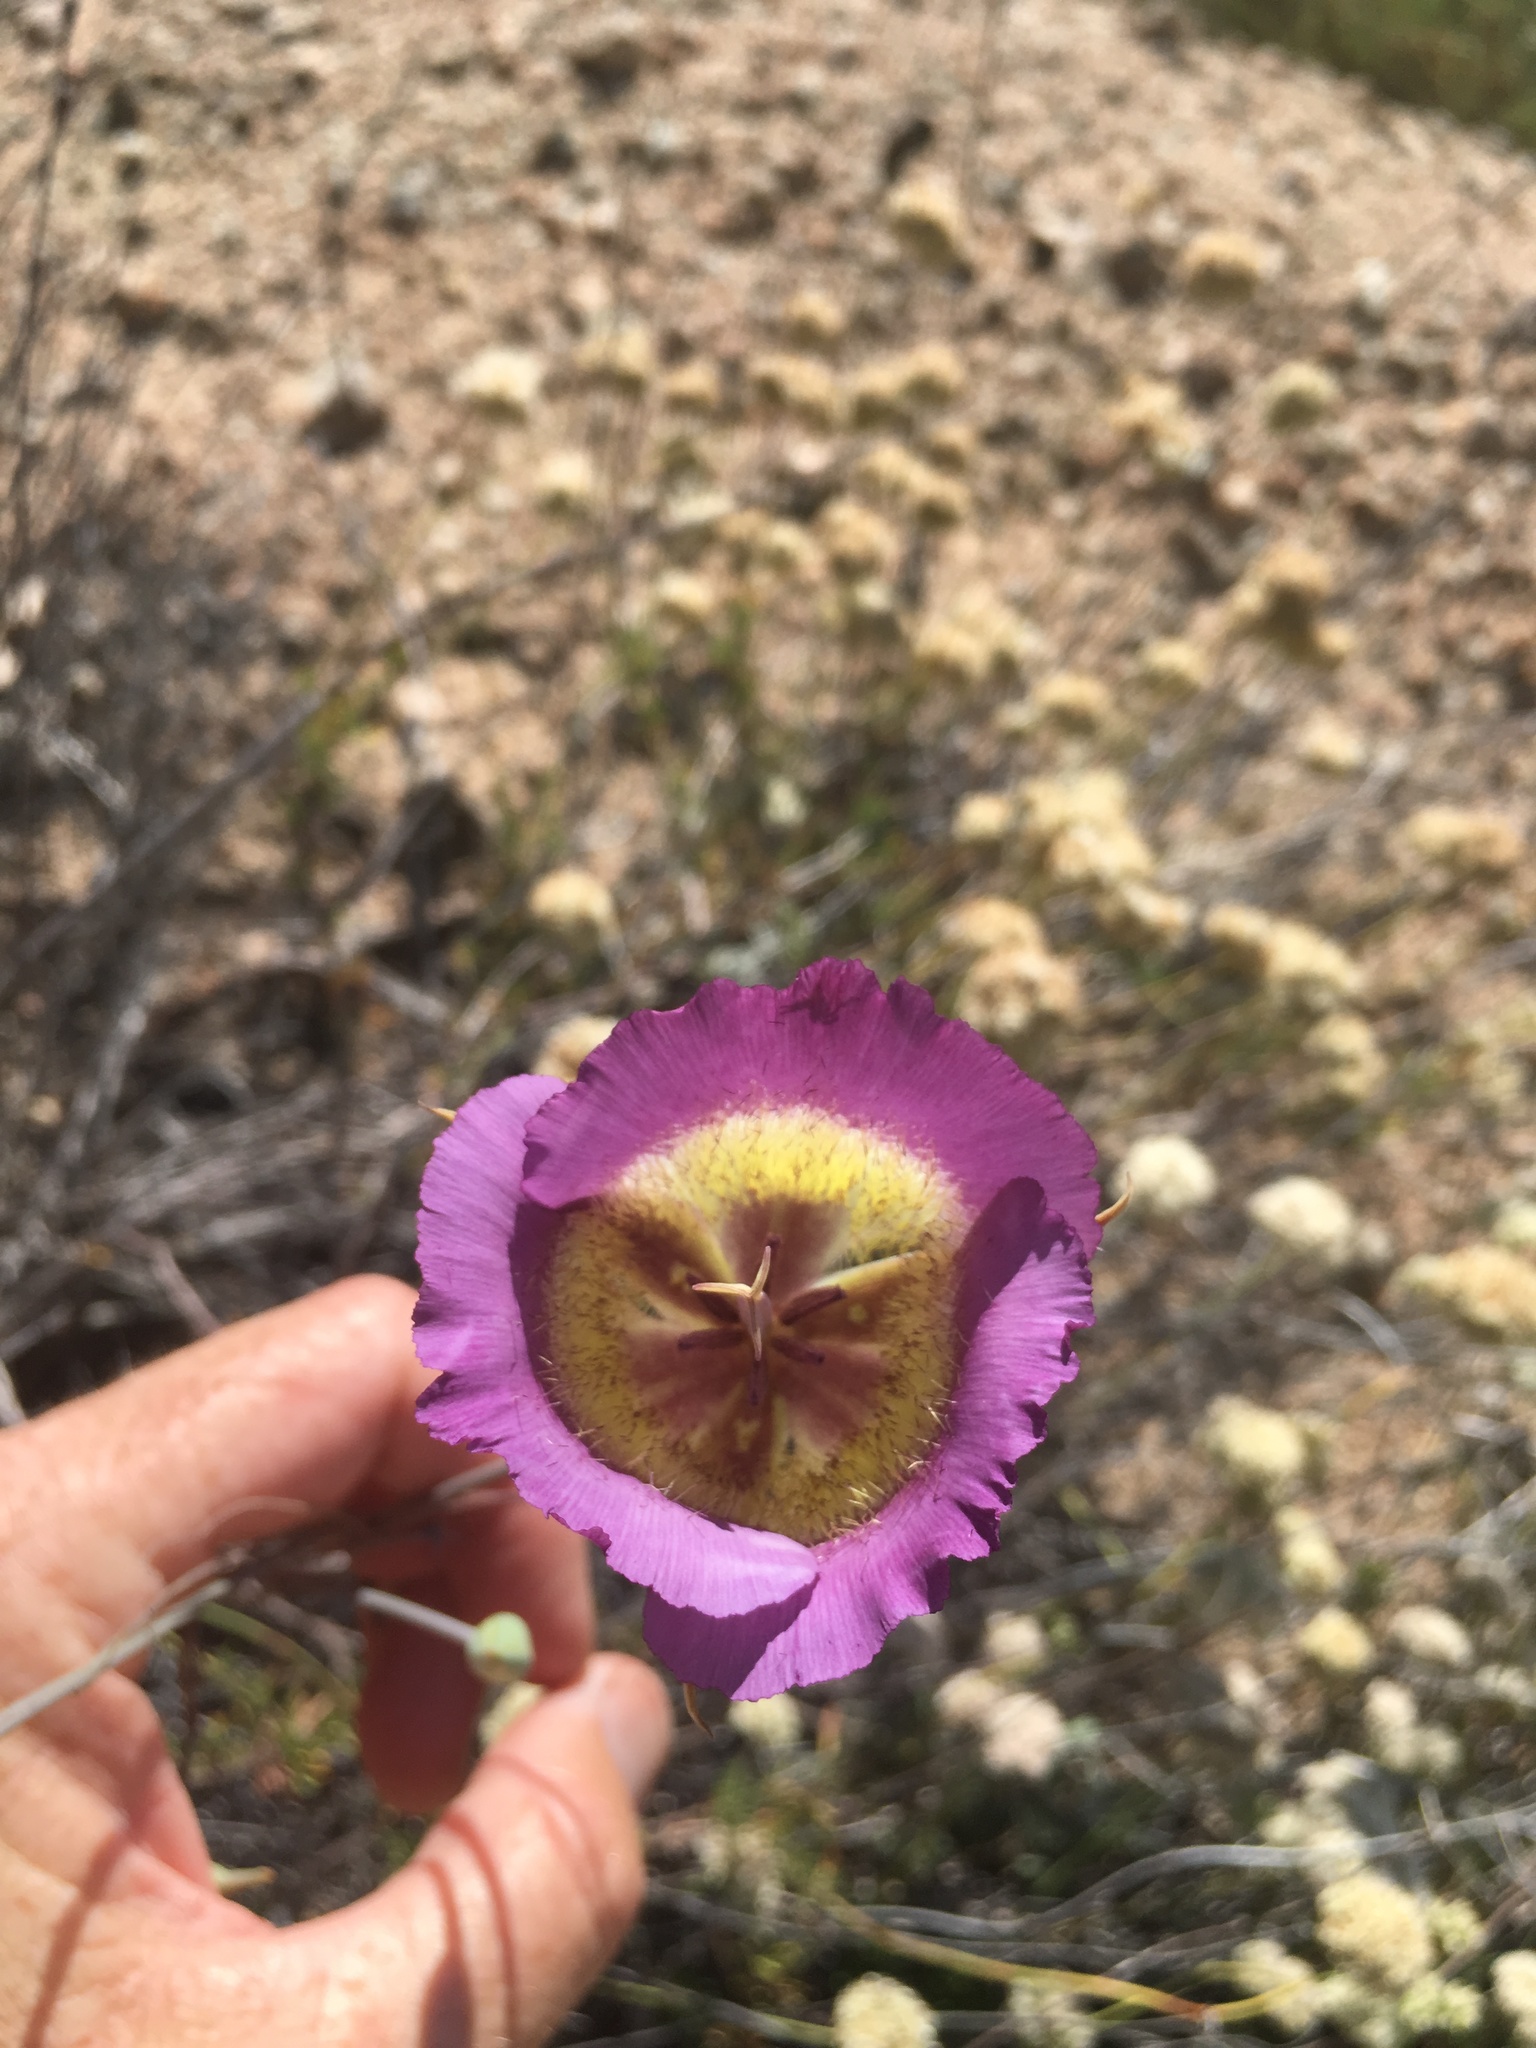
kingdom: Plantae
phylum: Tracheophyta
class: Liliopsida
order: Liliales
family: Liliaceae
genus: Calochortus
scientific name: Calochortus plummerae
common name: Plummer's mariposa-lily
